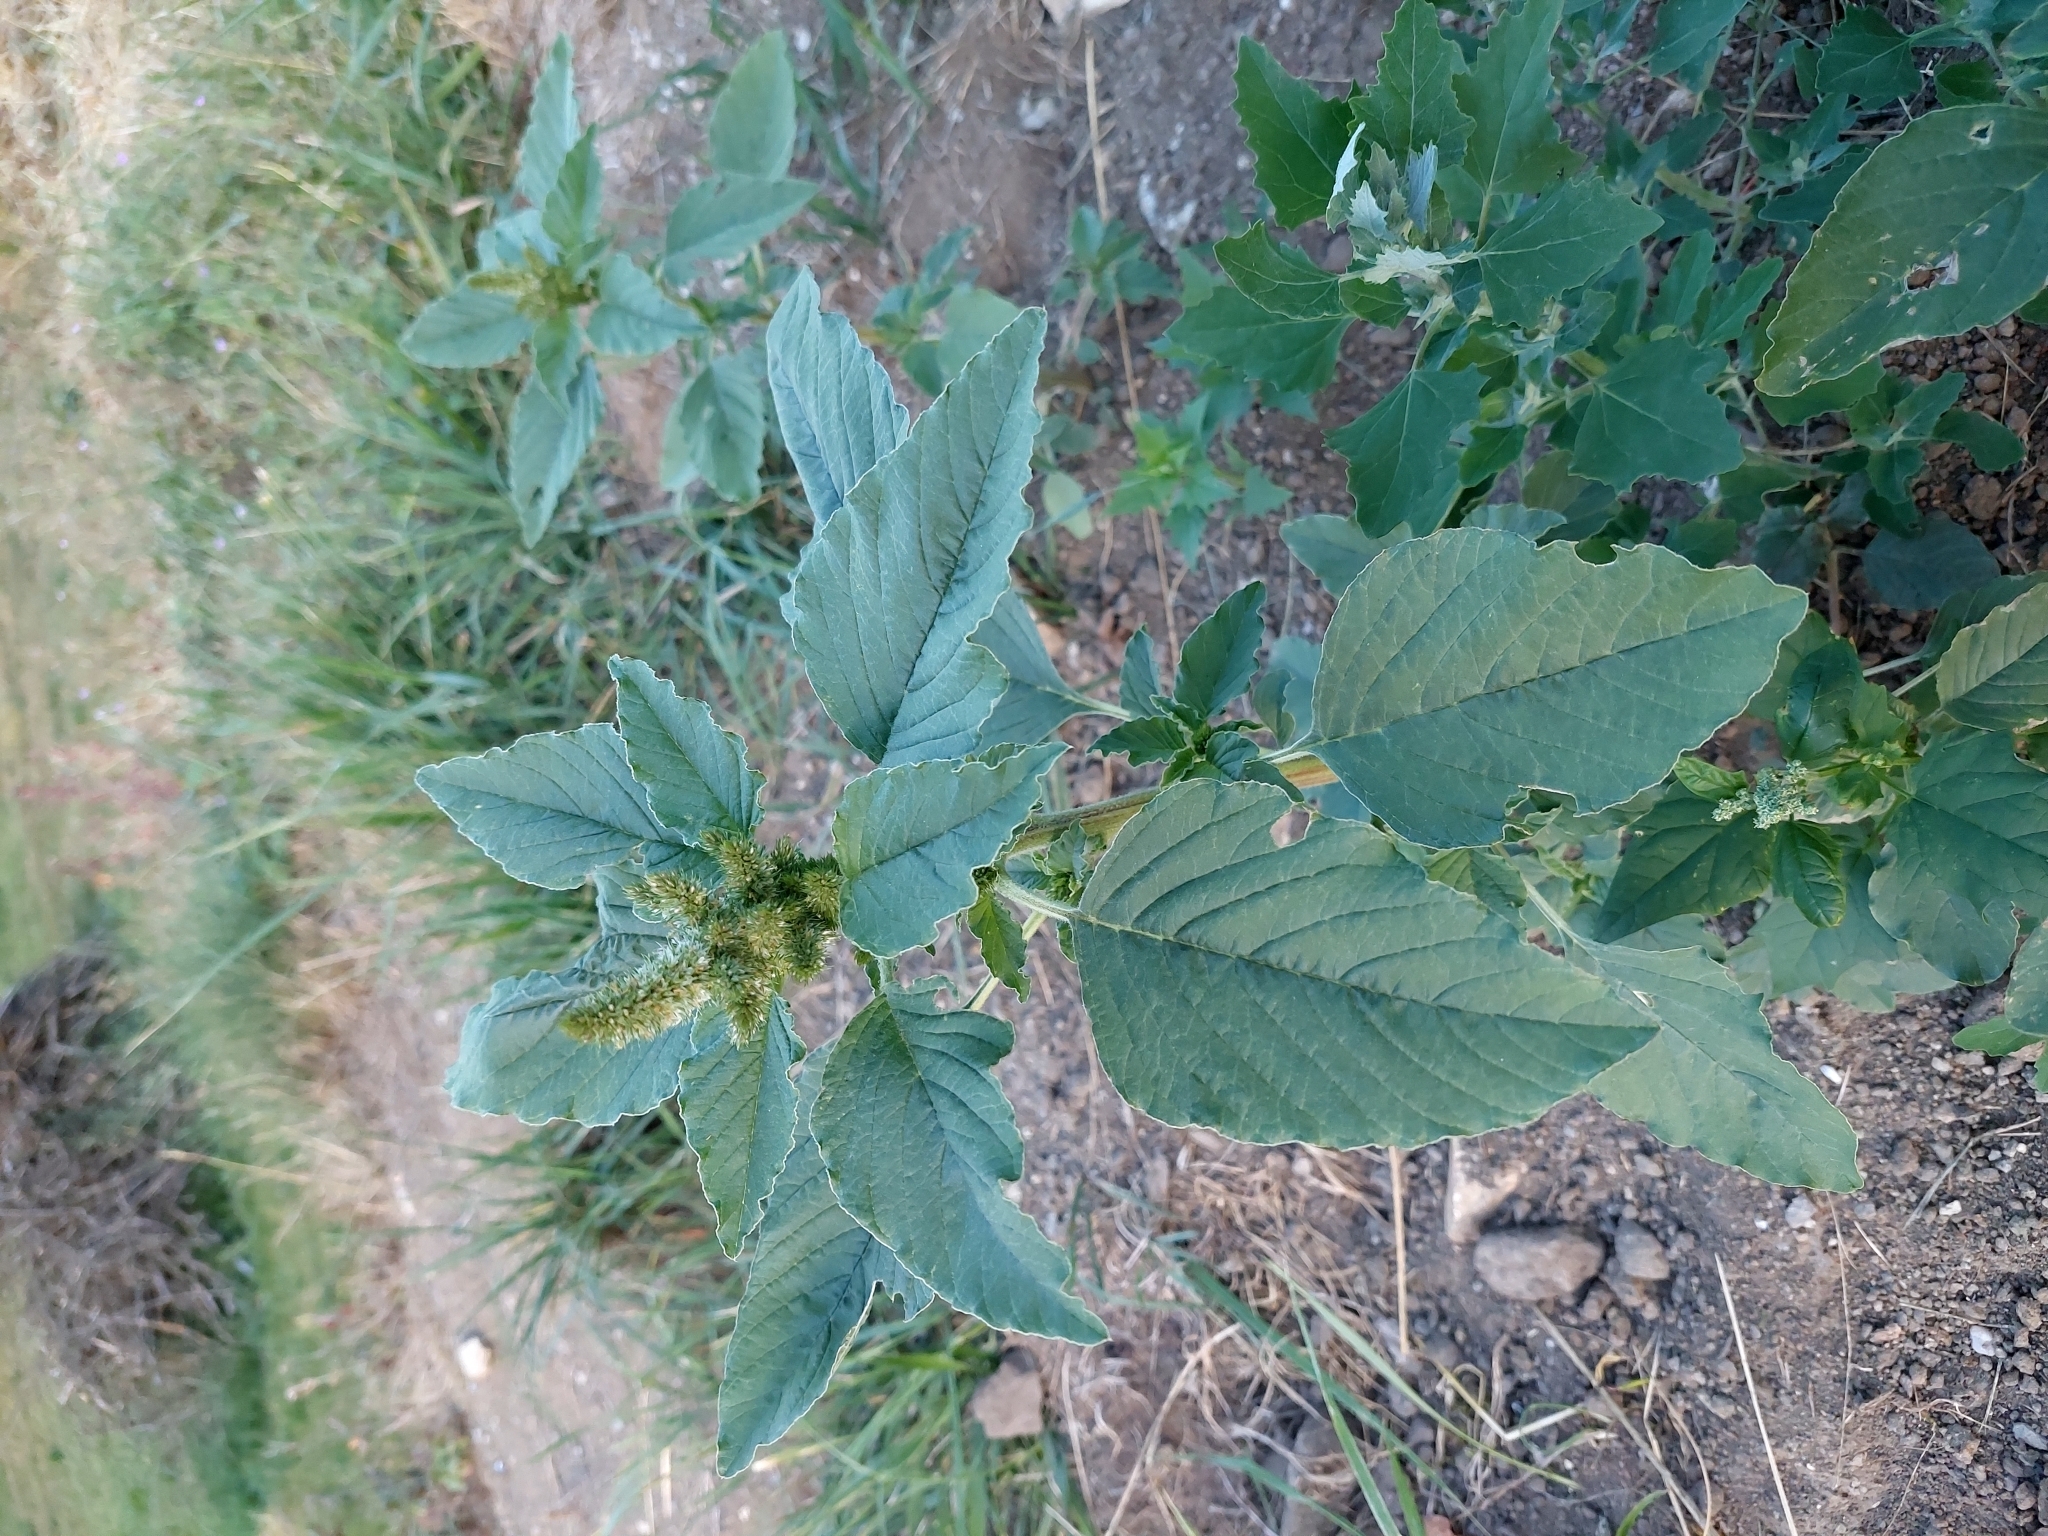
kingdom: Plantae
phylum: Tracheophyta
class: Magnoliopsida
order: Caryophyllales
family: Amaranthaceae
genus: Amaranthus
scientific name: Amaranthus retroflexus
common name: Redroot amaranth
